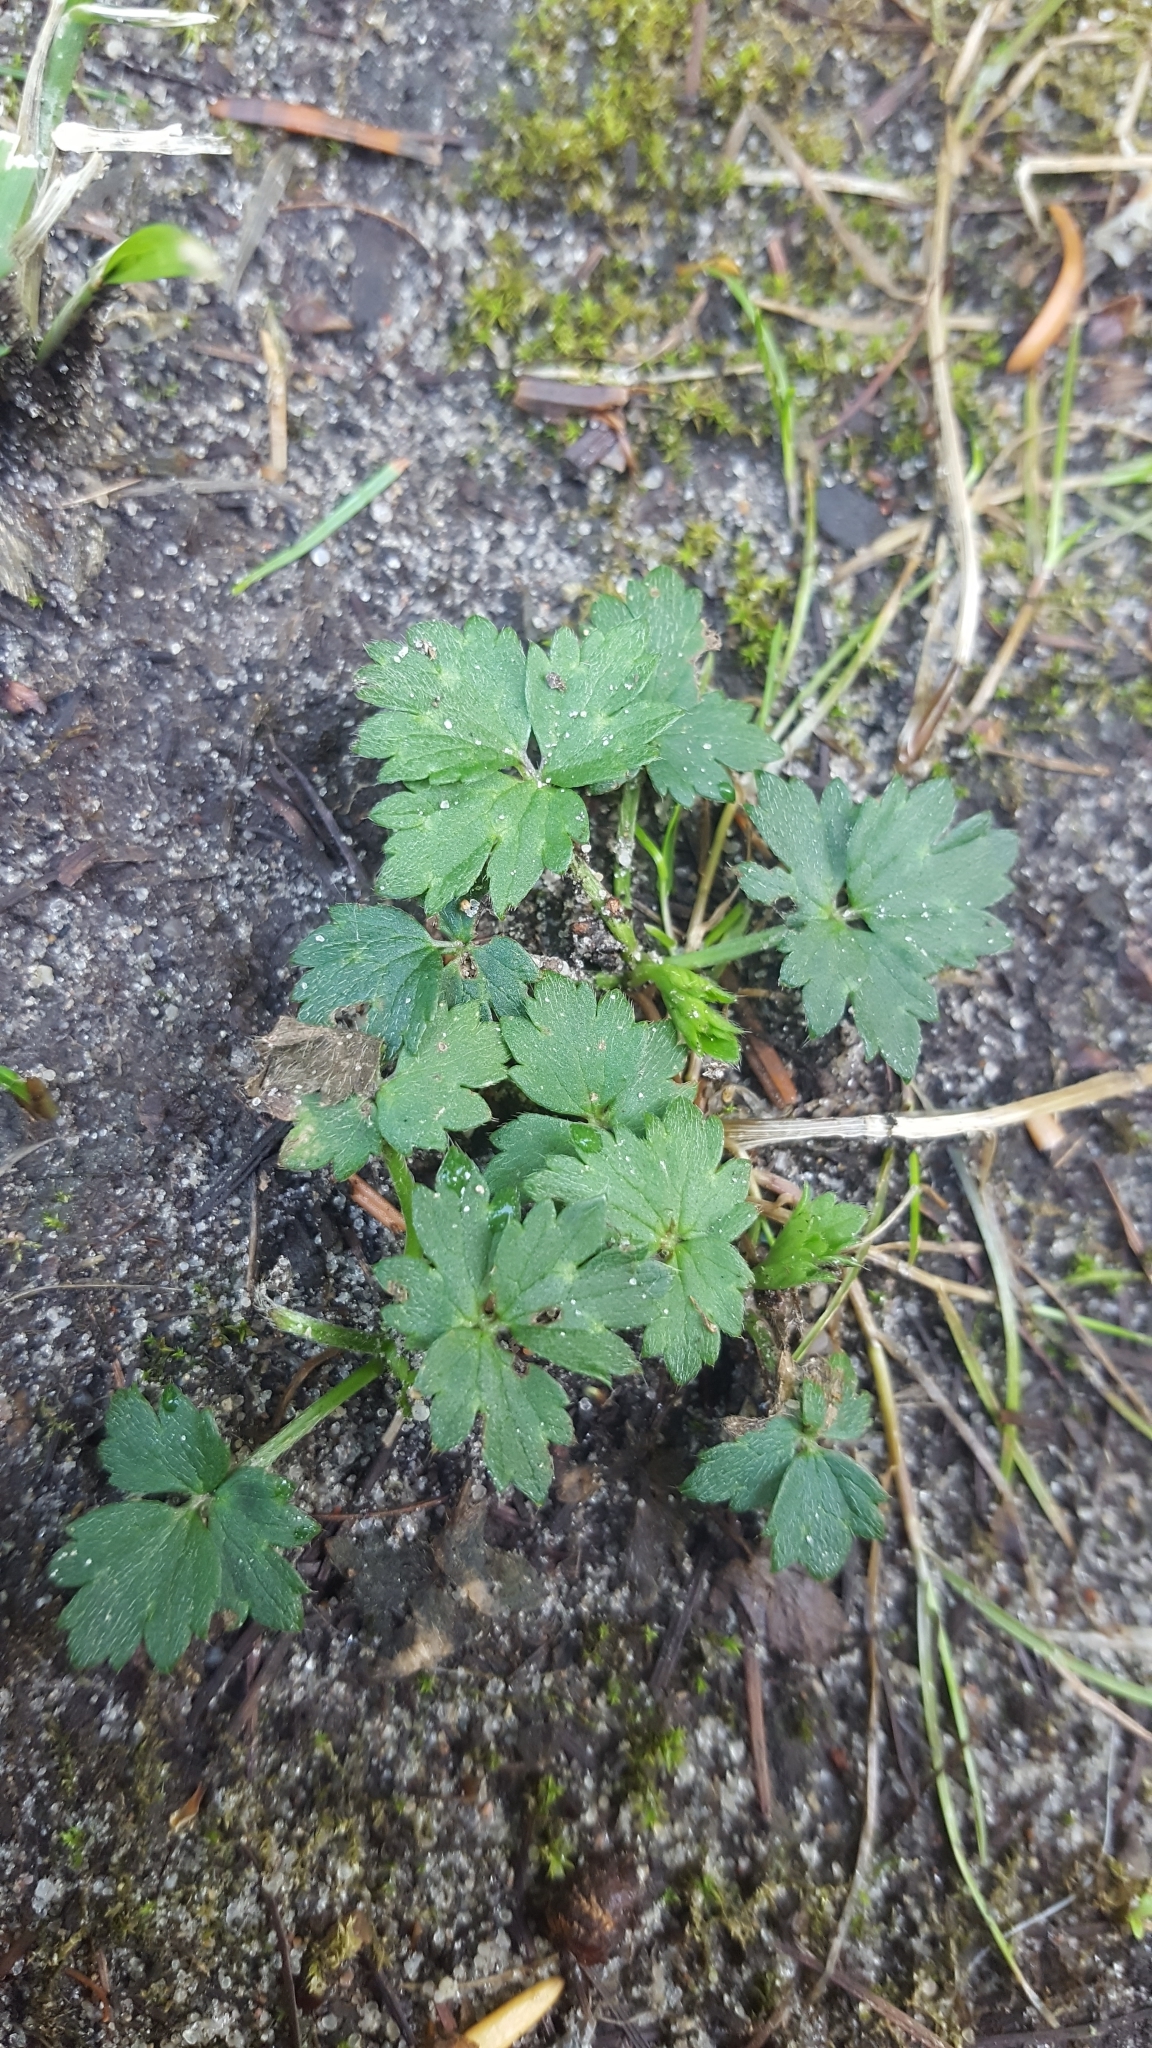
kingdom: Plantae
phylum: Tracheophyta
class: Magnoliopsida
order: Ranunculales
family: Ranunculaceae
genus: Ranunculus
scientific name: Ranunculus repens
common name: Creeping buttercup
